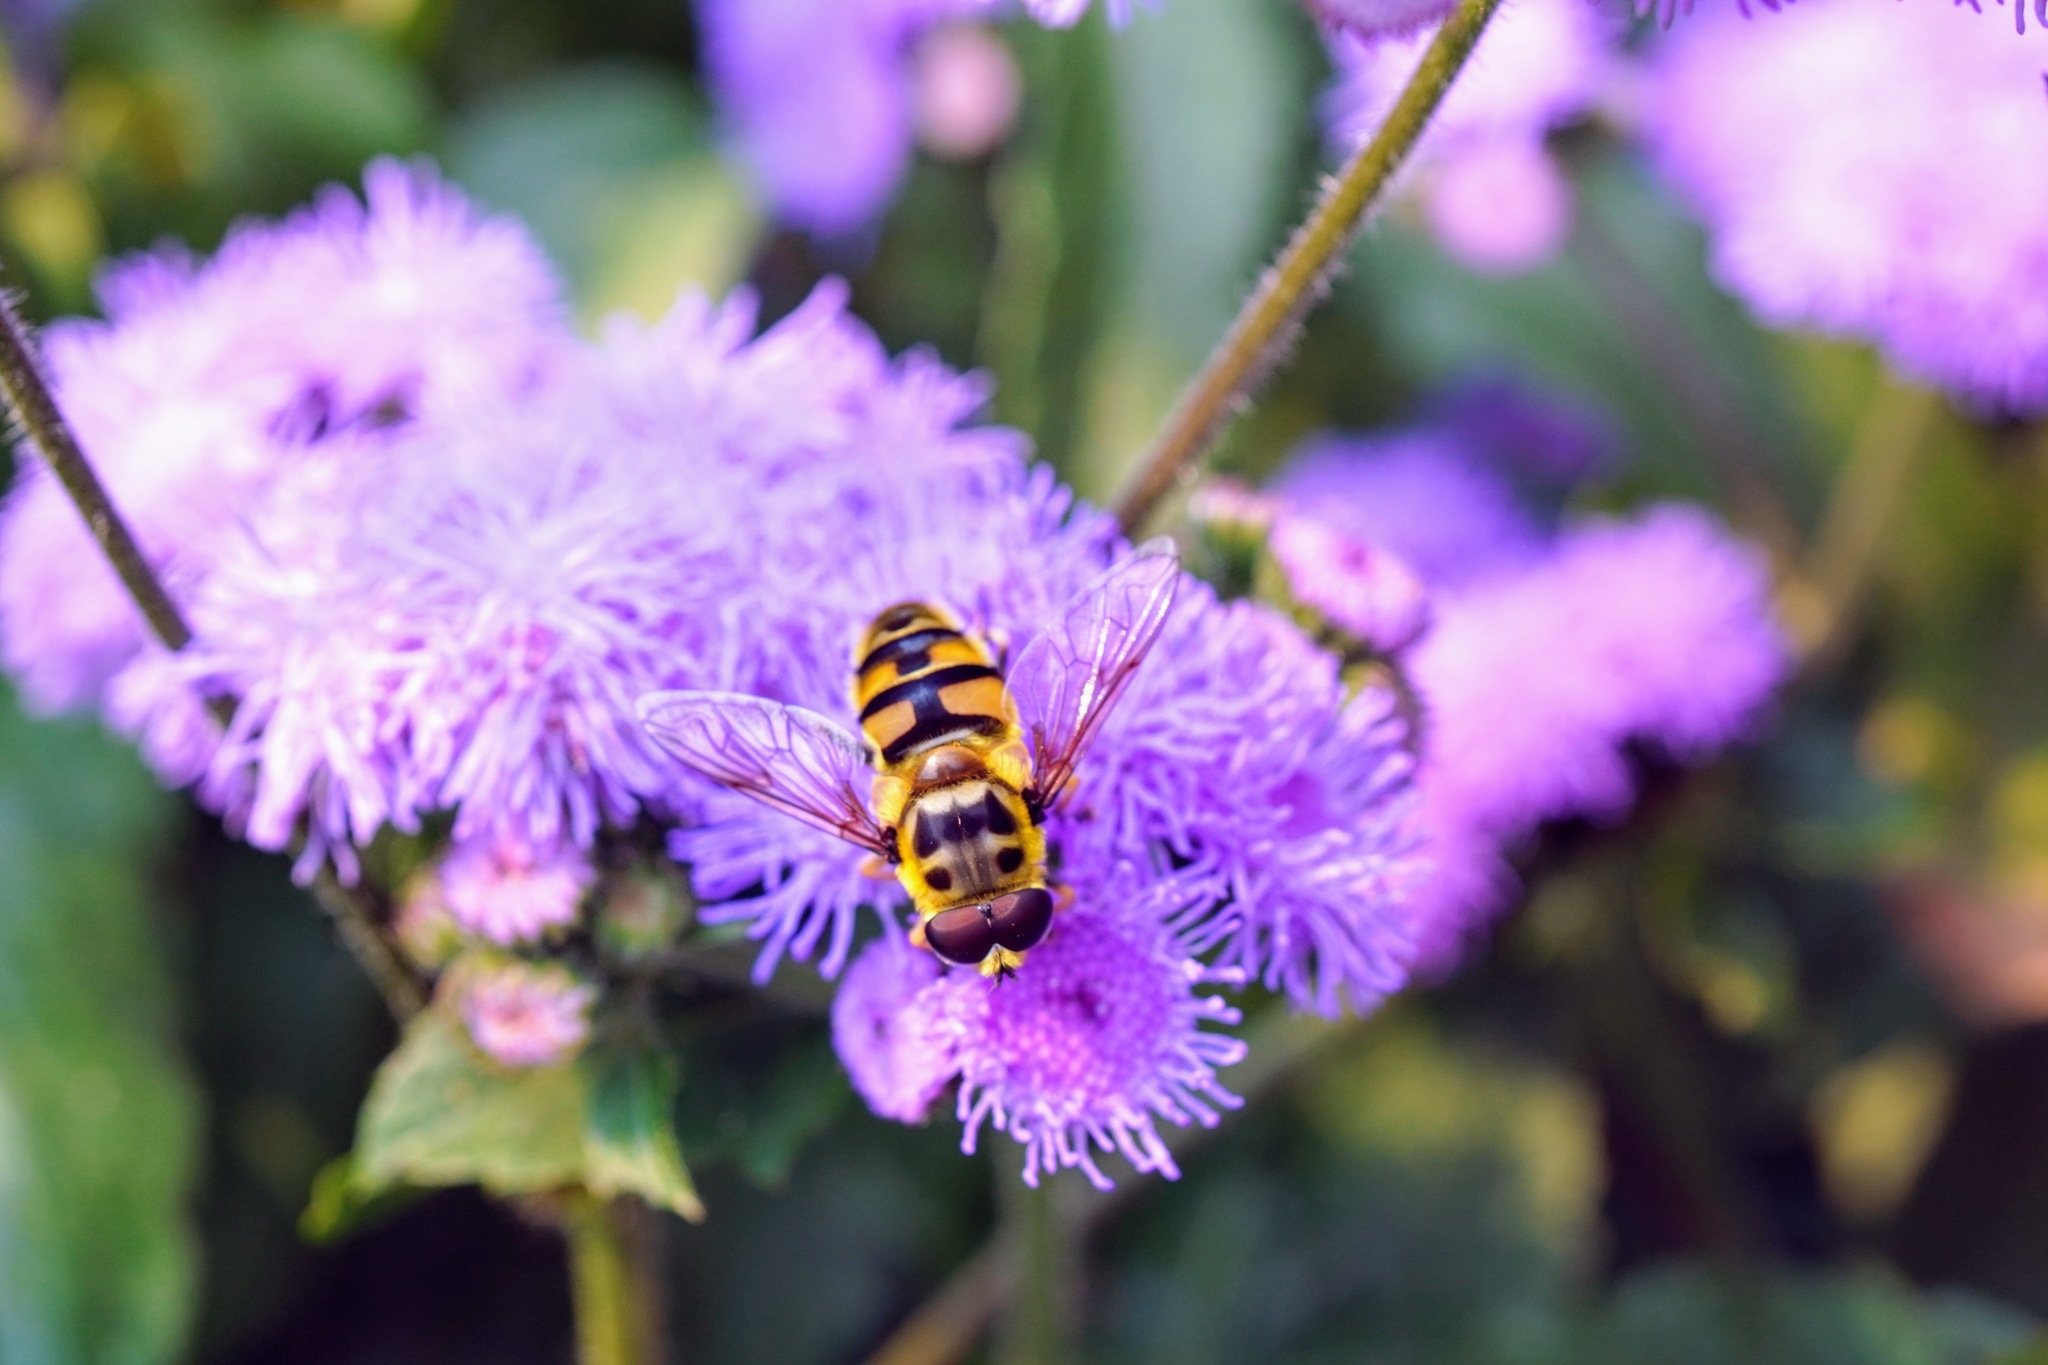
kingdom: Animalia
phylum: Arthropoda
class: Insecta
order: Diptera
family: Syrphidae
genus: Myathropa
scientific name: Myathropa florea
